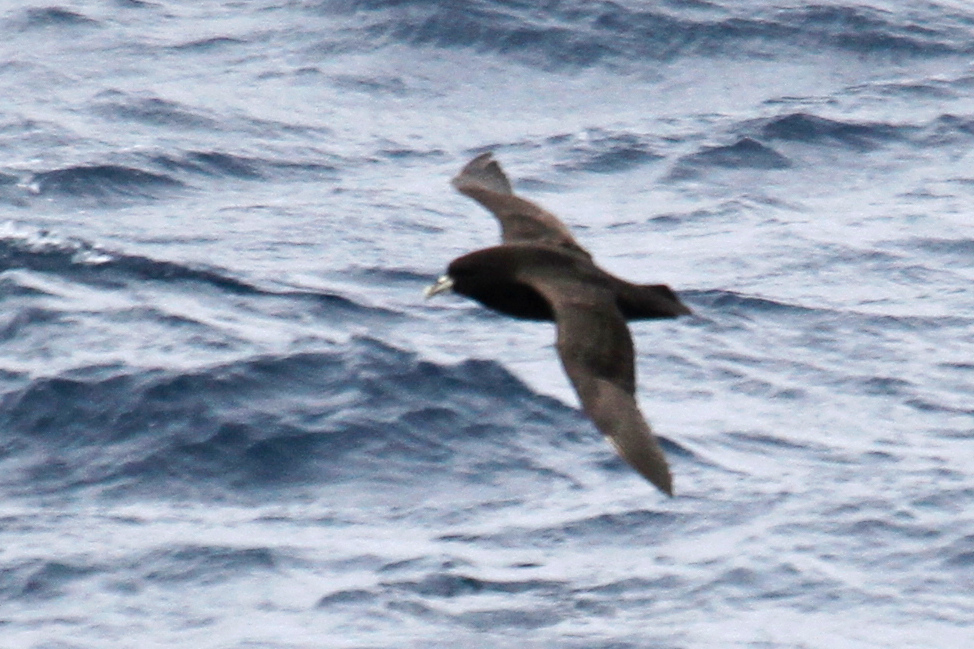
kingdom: Animalia
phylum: Chordata
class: Aves
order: Procellariiformes
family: Procellariidae
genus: Procellaria
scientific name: Procellaria aequinoctialis
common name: White-chinned petrel
